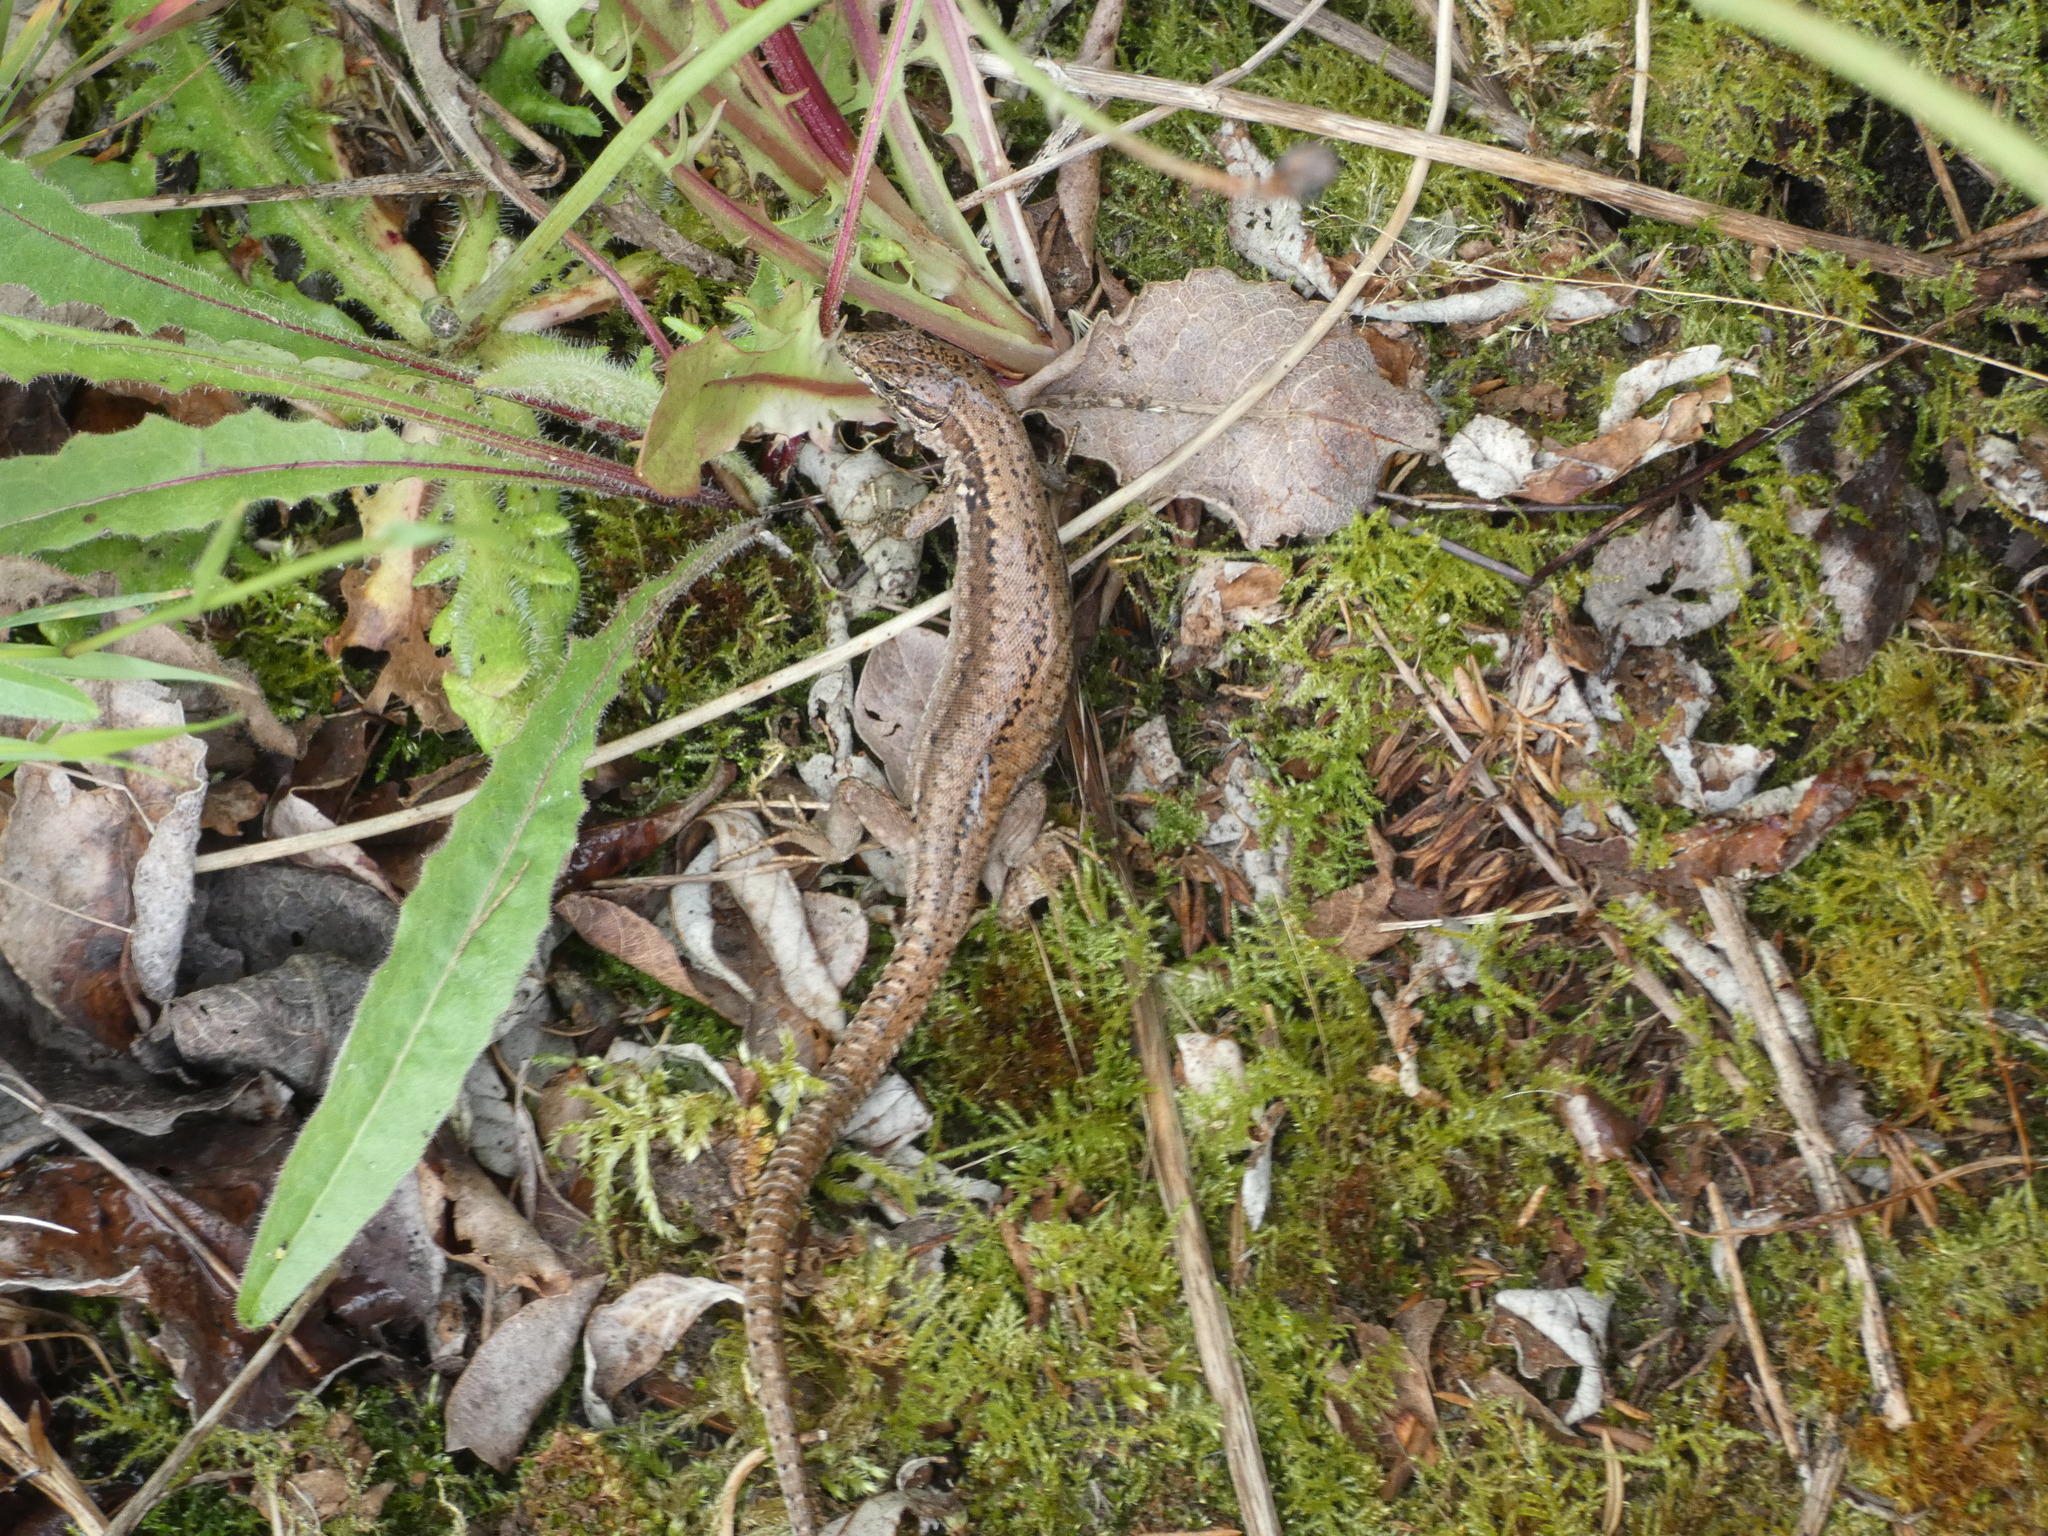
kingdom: Animalia
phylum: Chordata
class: Squamata
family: Lacertidae
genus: Podarcis
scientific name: Podarcis muralis
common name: Common wall lizard
